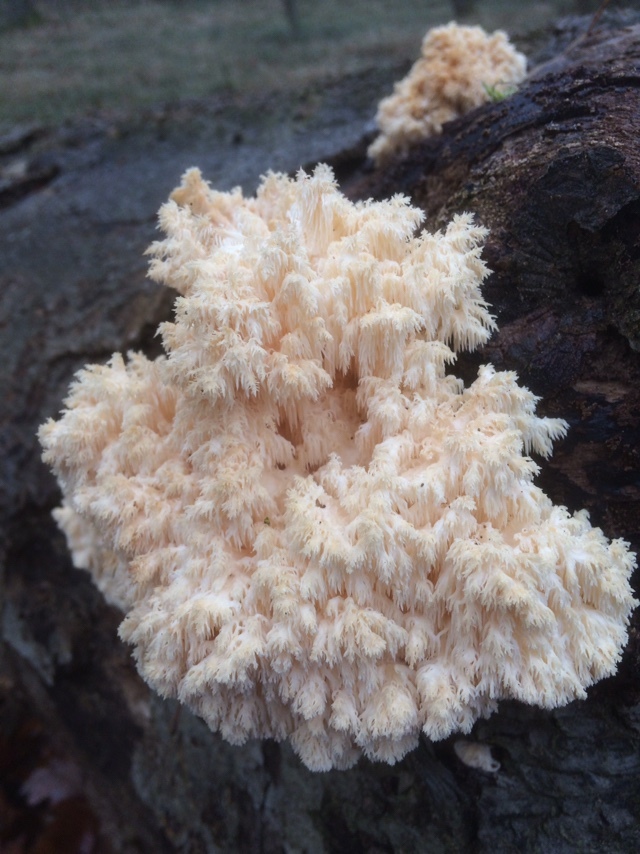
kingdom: Fungi
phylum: Basidiomycota
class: Agaricomycetes
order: Russulales
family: Hericiaceae
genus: Hericium
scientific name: Hericium coralloides
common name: Coral tooth
